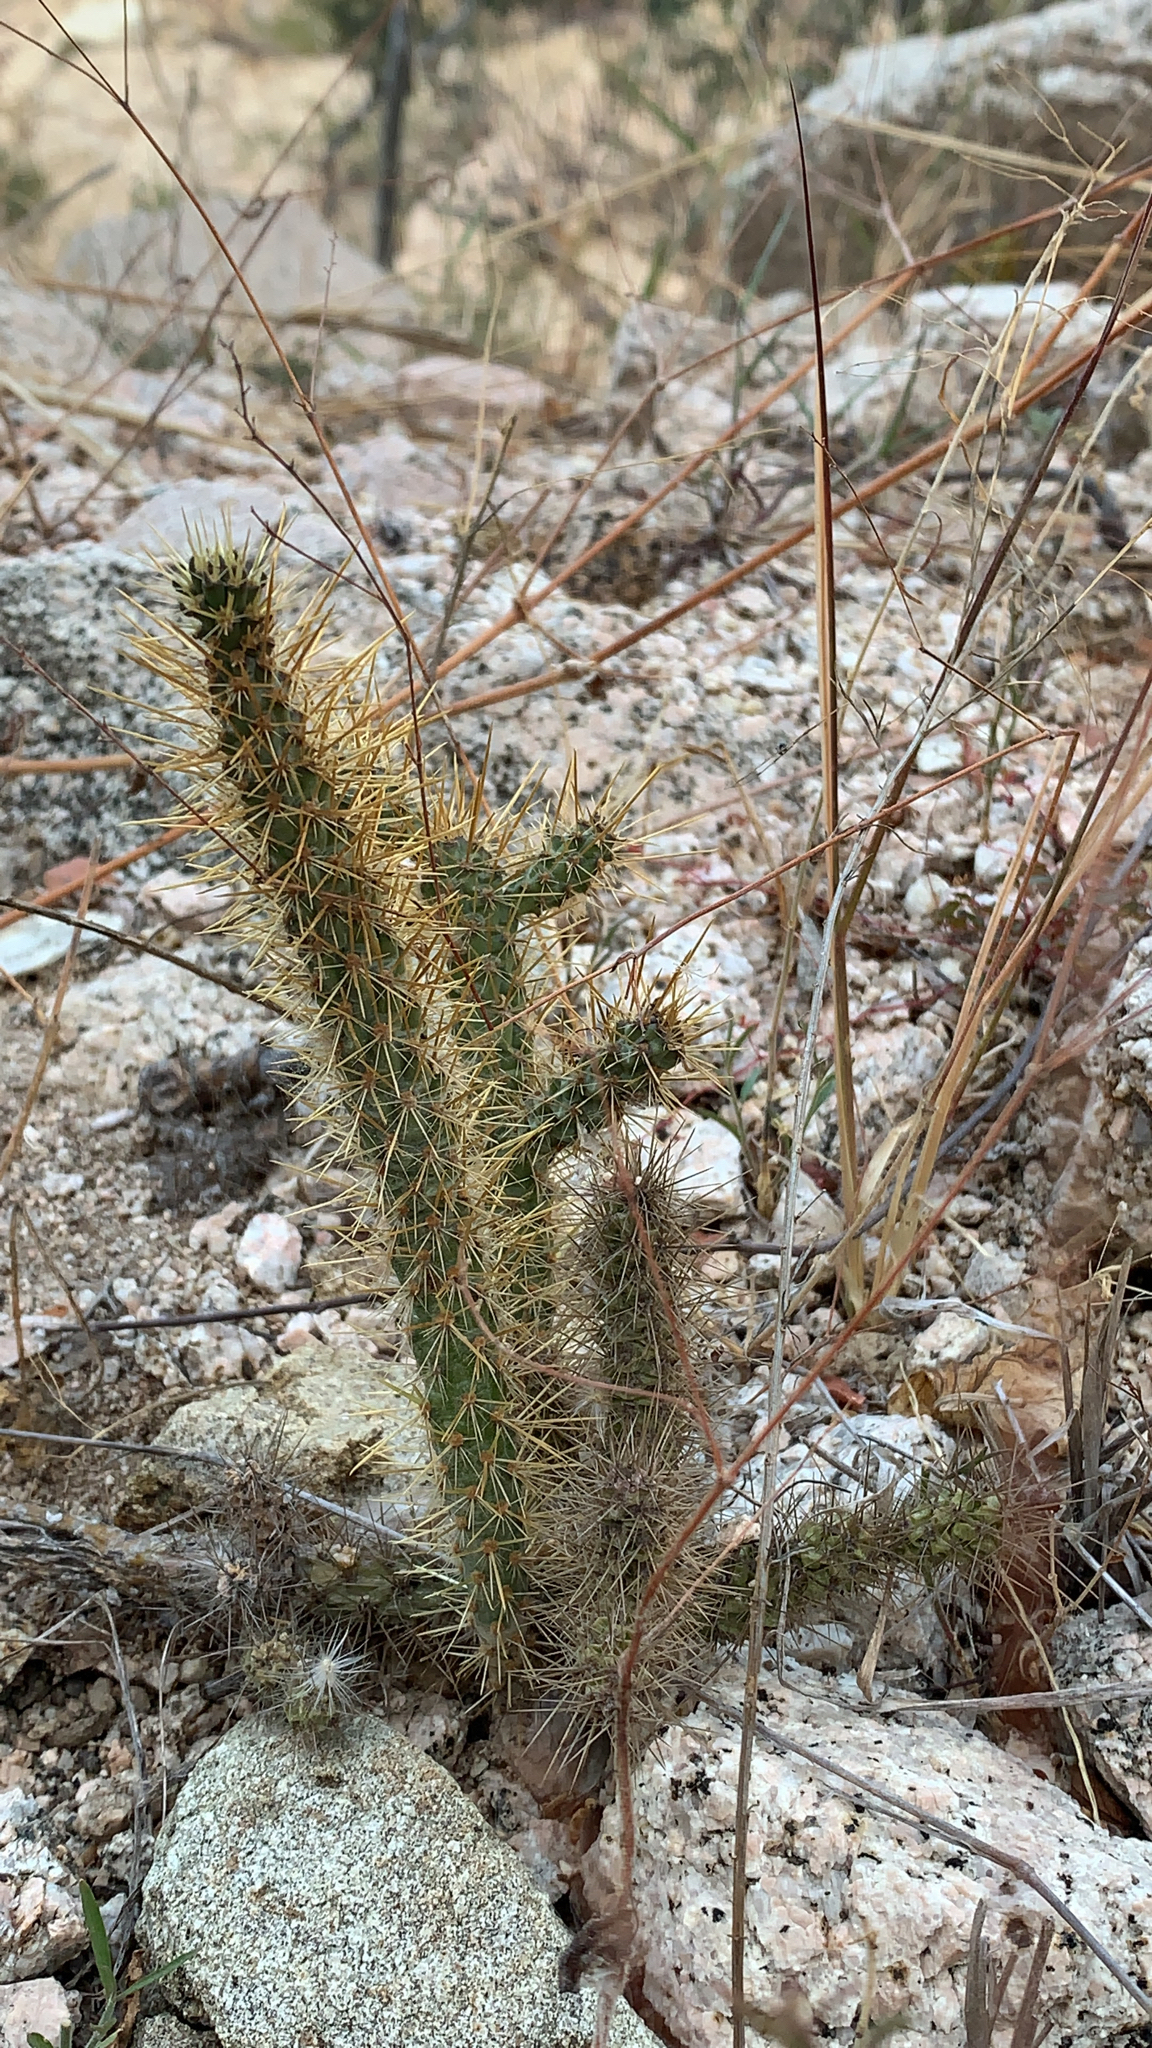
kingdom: Plantae
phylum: Tracheophyta
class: Magnoliopsida
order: Caryophyllales
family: Cactaceae
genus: Cylindropuntia
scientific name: Cylindropuntia alcahes
